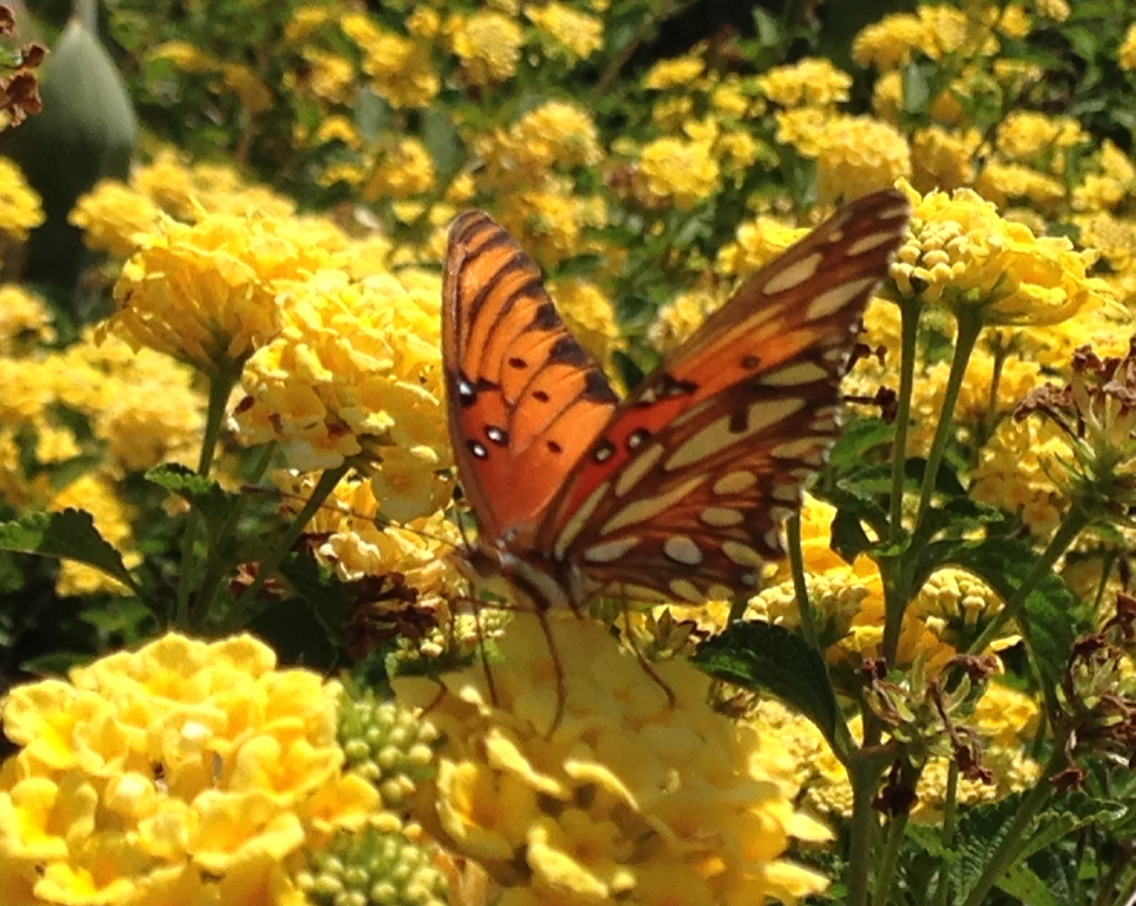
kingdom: Animalia
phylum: Arthropoda
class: Insecta
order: Lepidoptera
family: Nymphalidae
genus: Dione
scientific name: Dione vanillae
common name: Gulf fritillary
